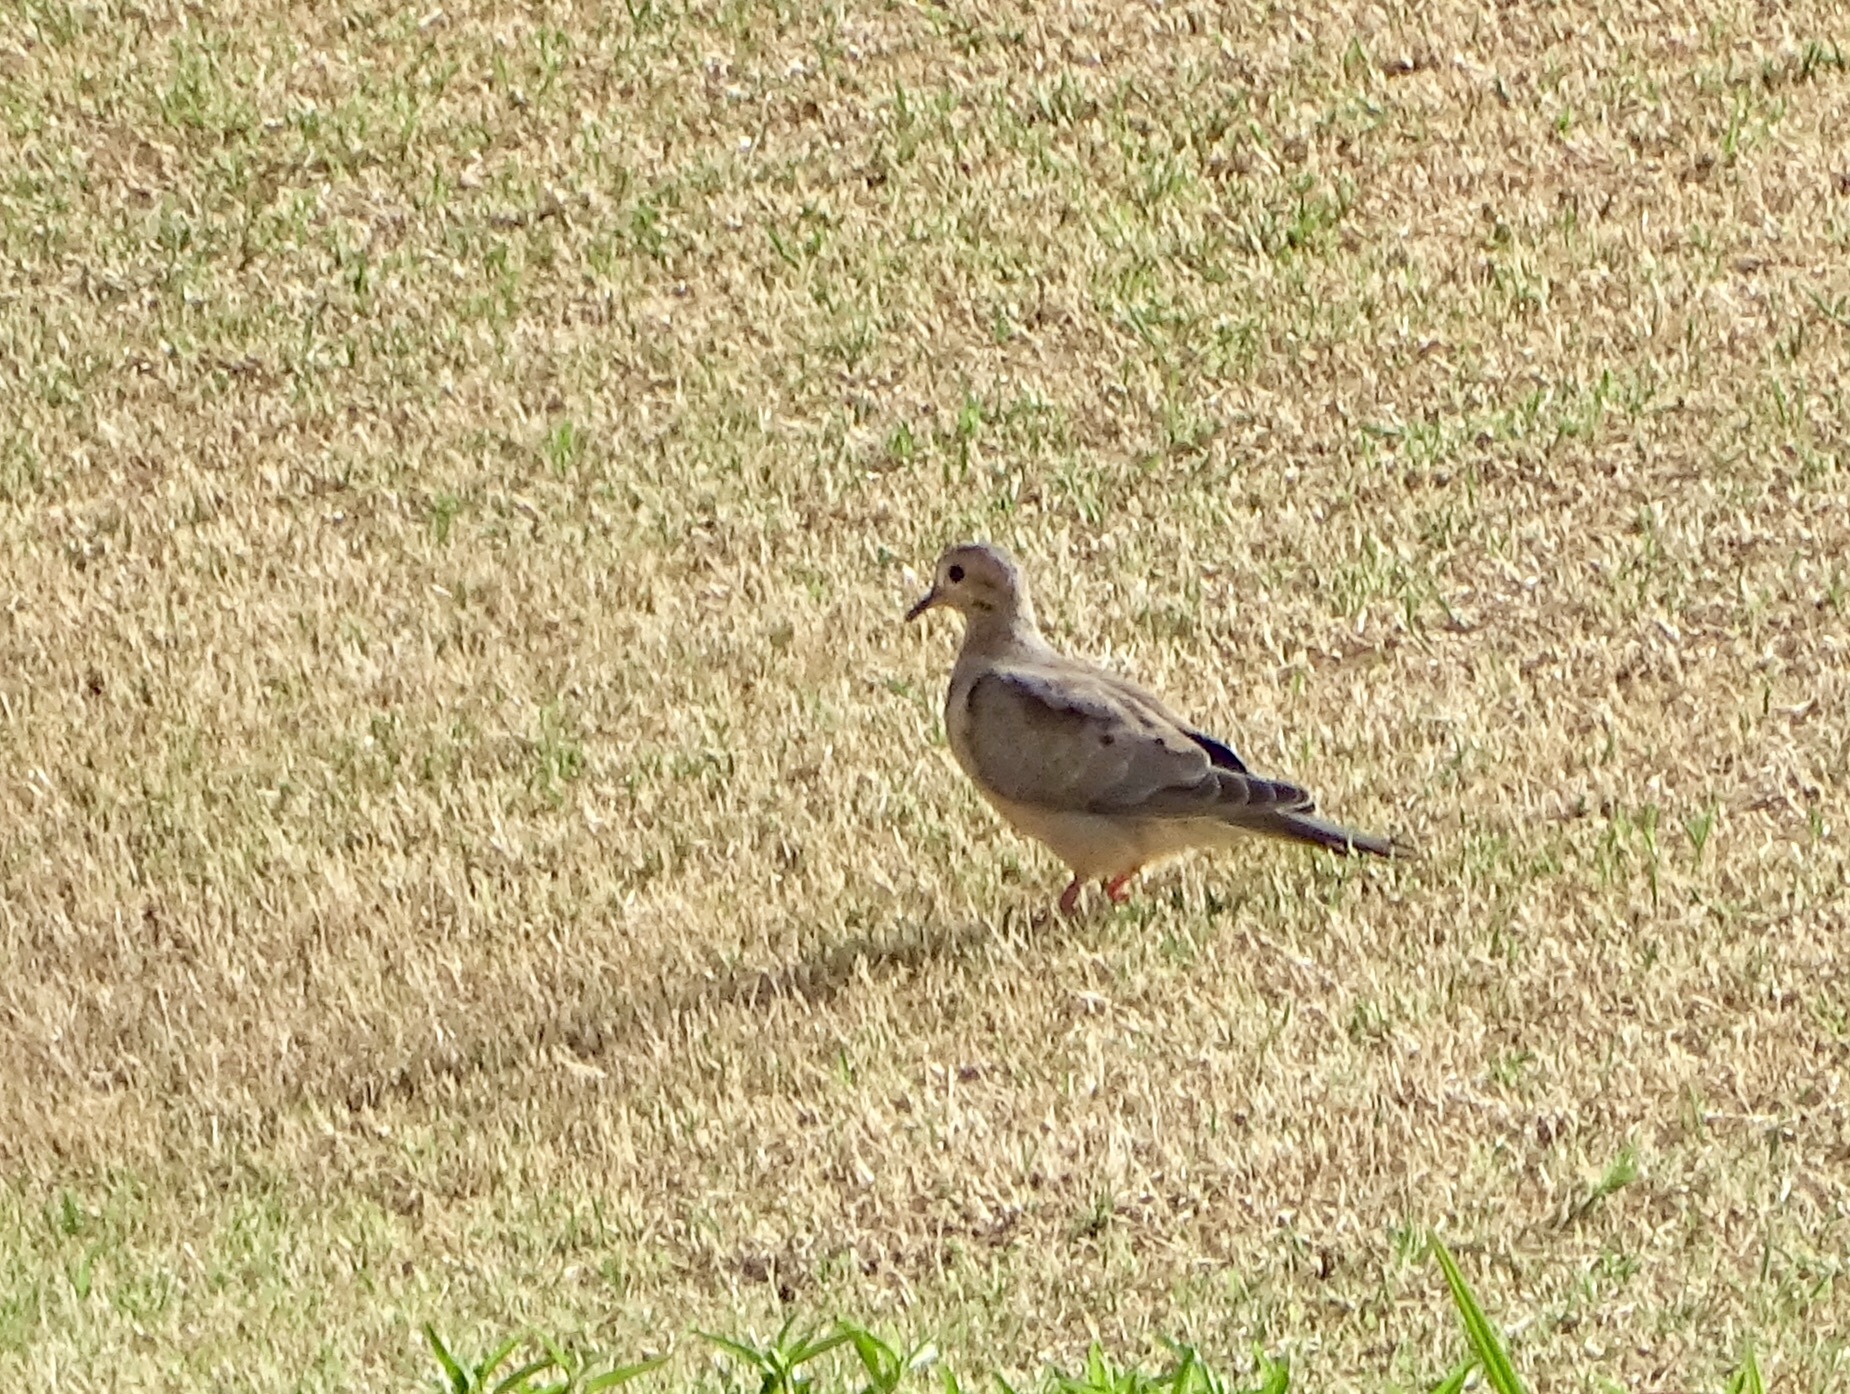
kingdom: Animalia
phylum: Chordata
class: Aves
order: Columbiformes
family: Columbidae
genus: Zenaida
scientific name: Zenaida macroura
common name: Mourning dove
